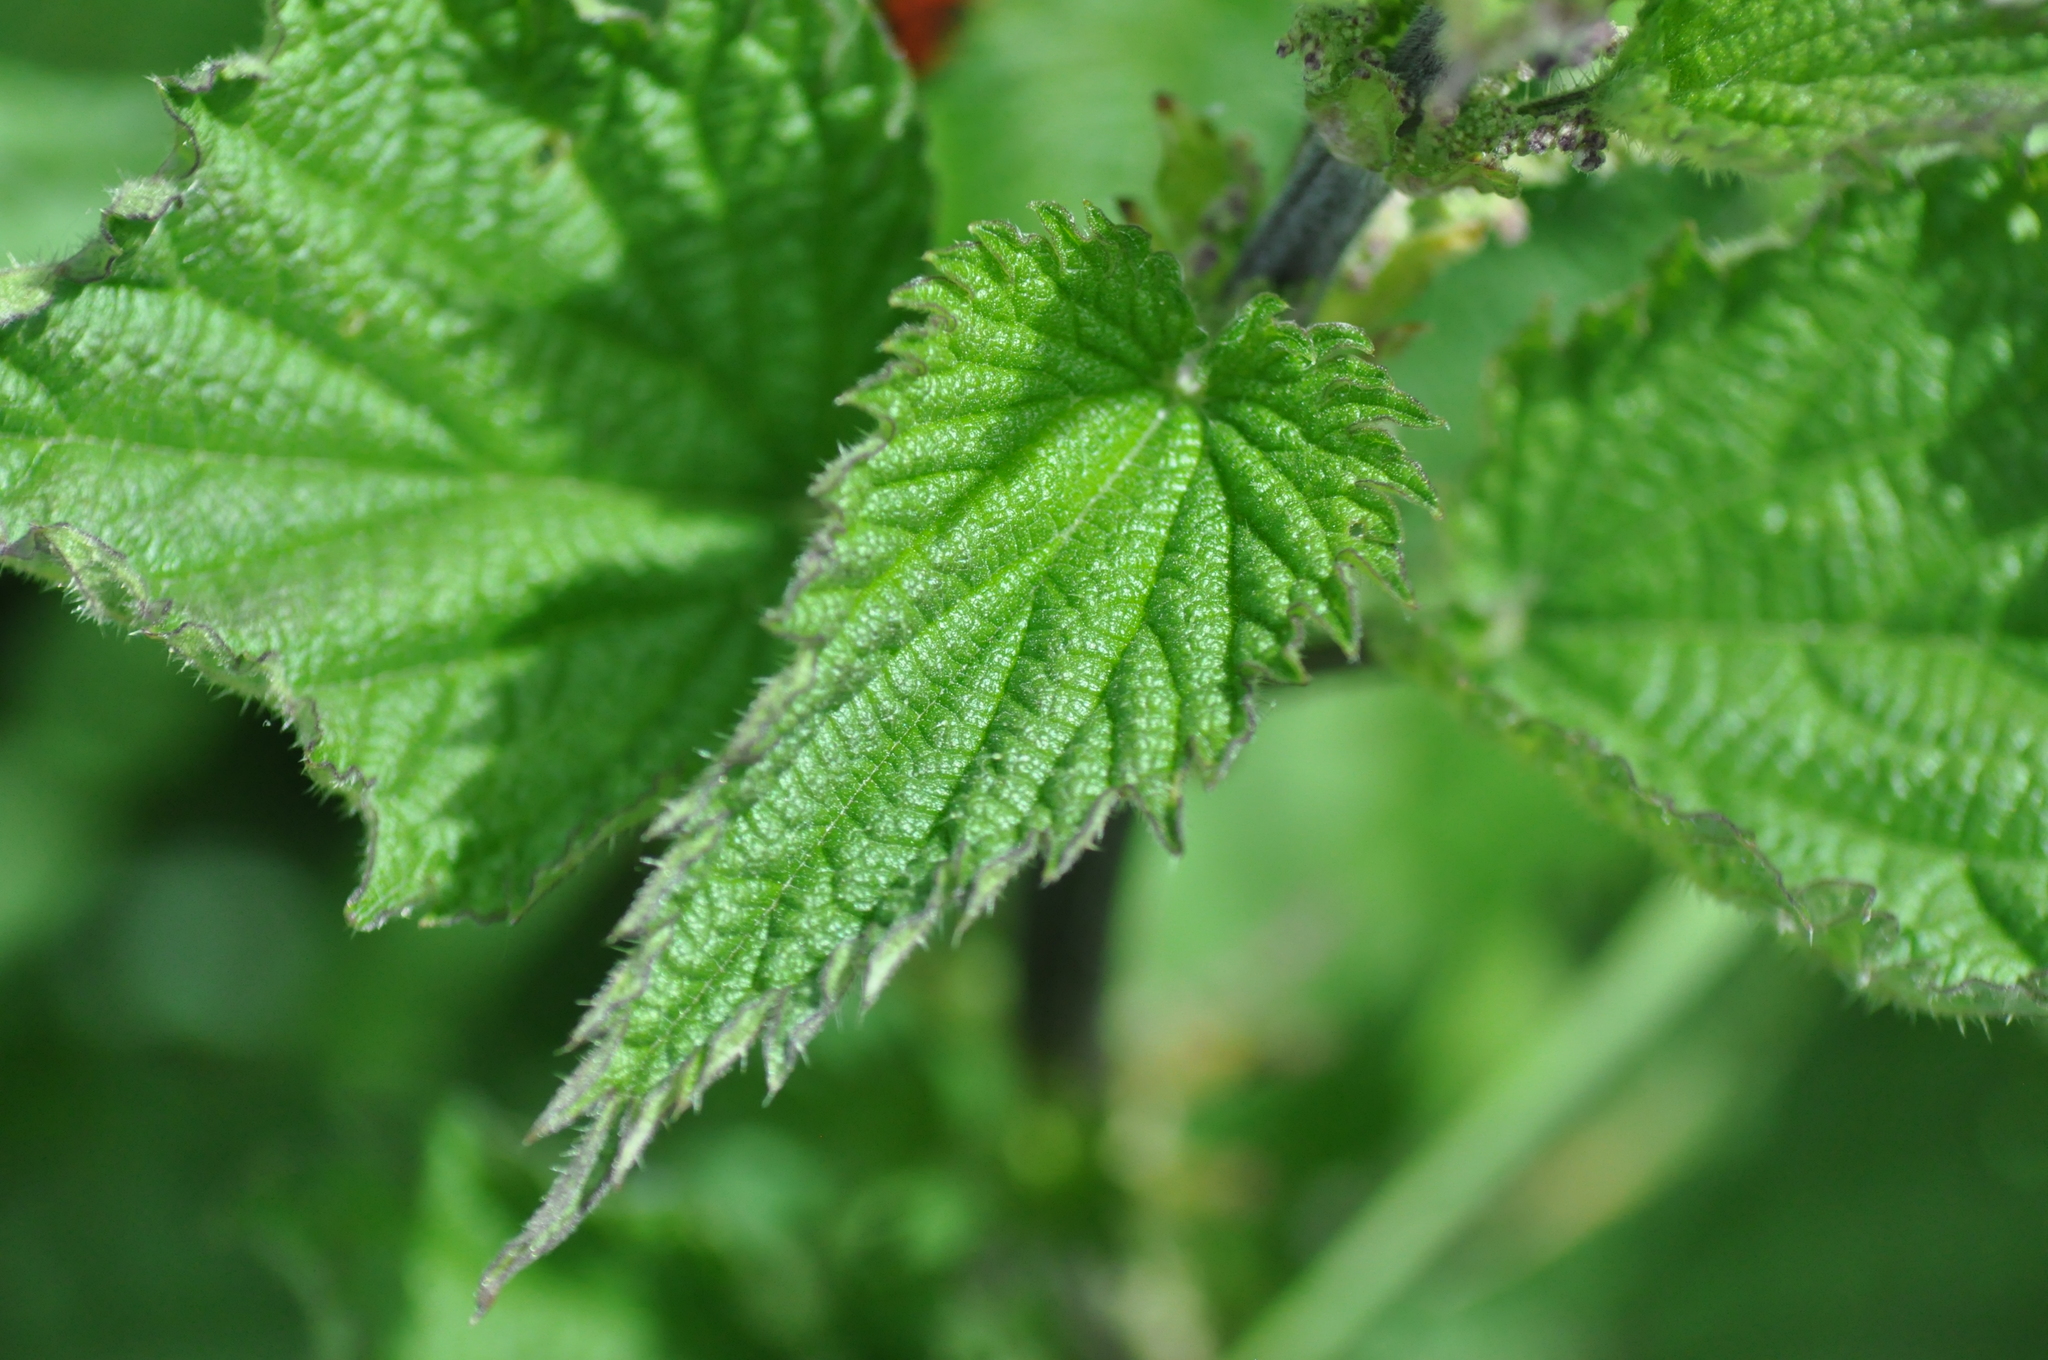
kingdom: Plantae
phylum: Tracheophyta
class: Magnoliopsida
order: Rosales
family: Urticaceae
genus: Urtica
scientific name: Urtica dioica
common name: Common nettle
